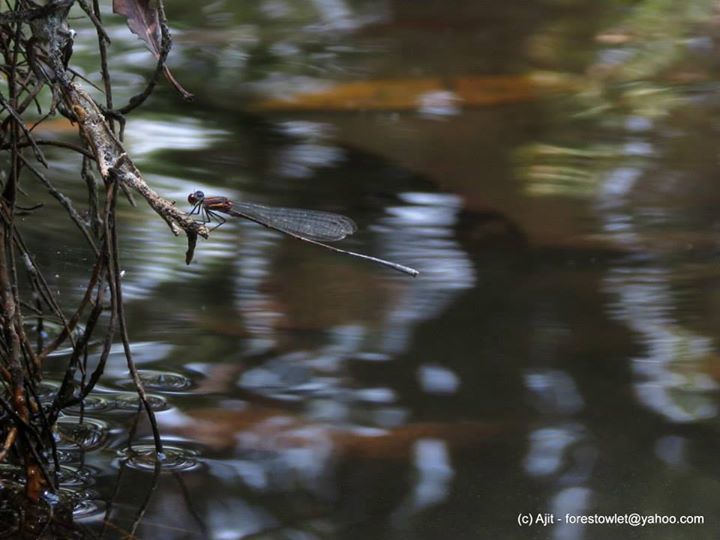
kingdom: Animalia
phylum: Arthropoda
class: Insecta
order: Odonata
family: Platycnemididae
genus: Prodasineura
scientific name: Prodasineura verticalis
